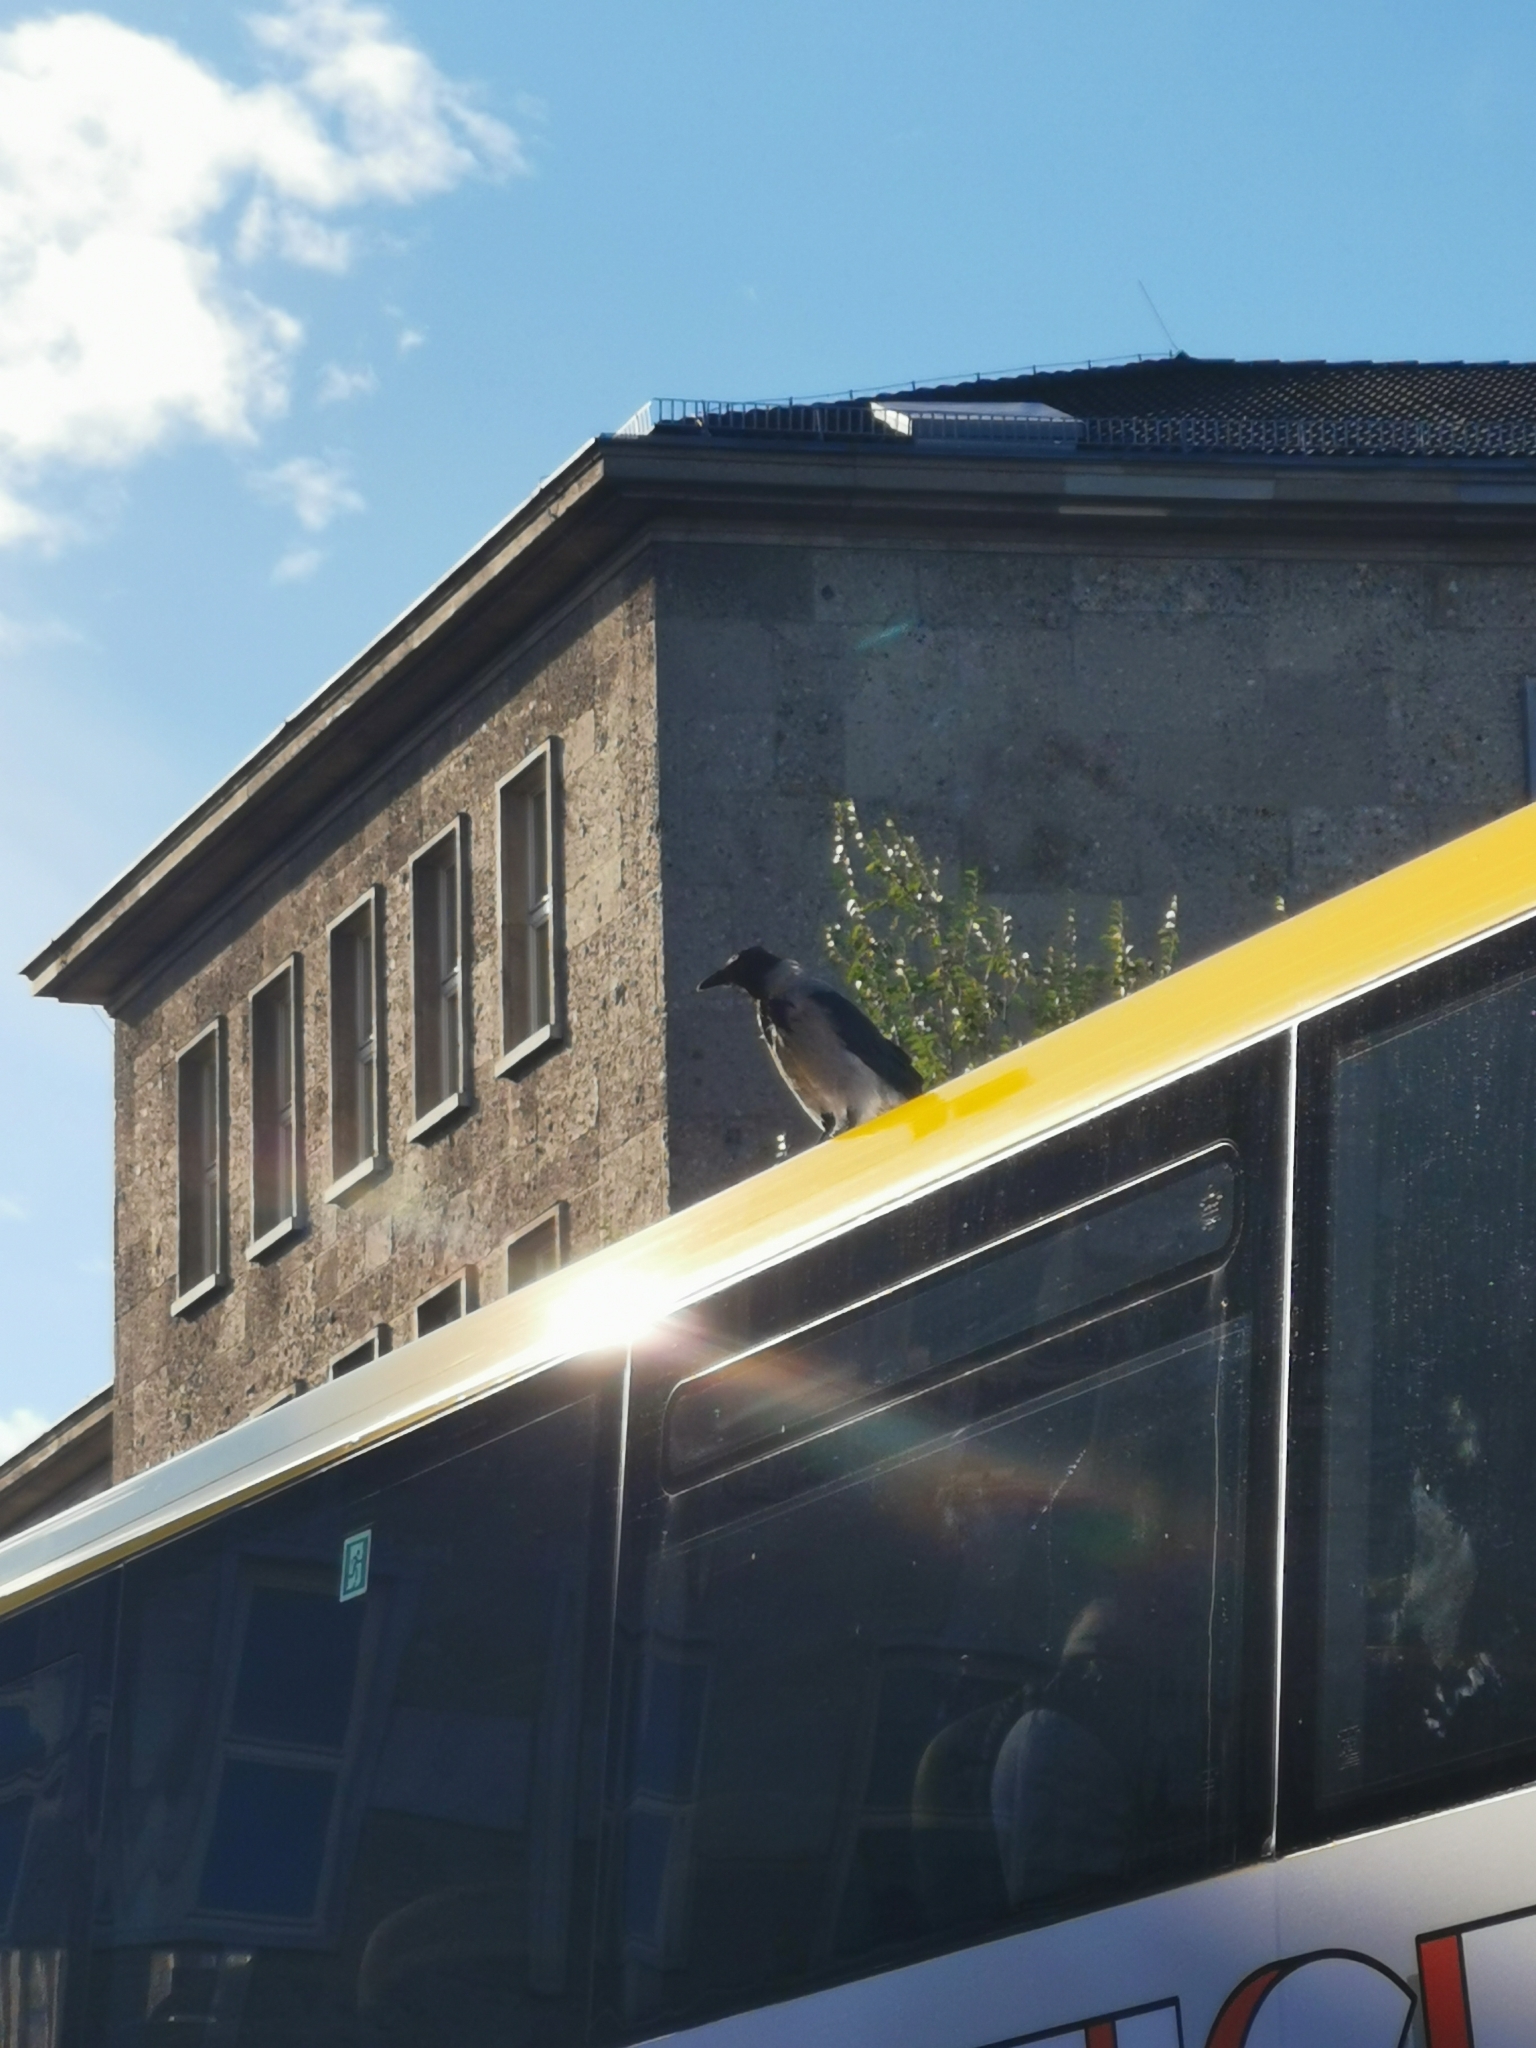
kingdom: Animalia
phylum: Chordata
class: Aves
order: Passeriformes
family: Corvidae
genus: Corvus
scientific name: Corvus cornix
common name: Hooded crow
